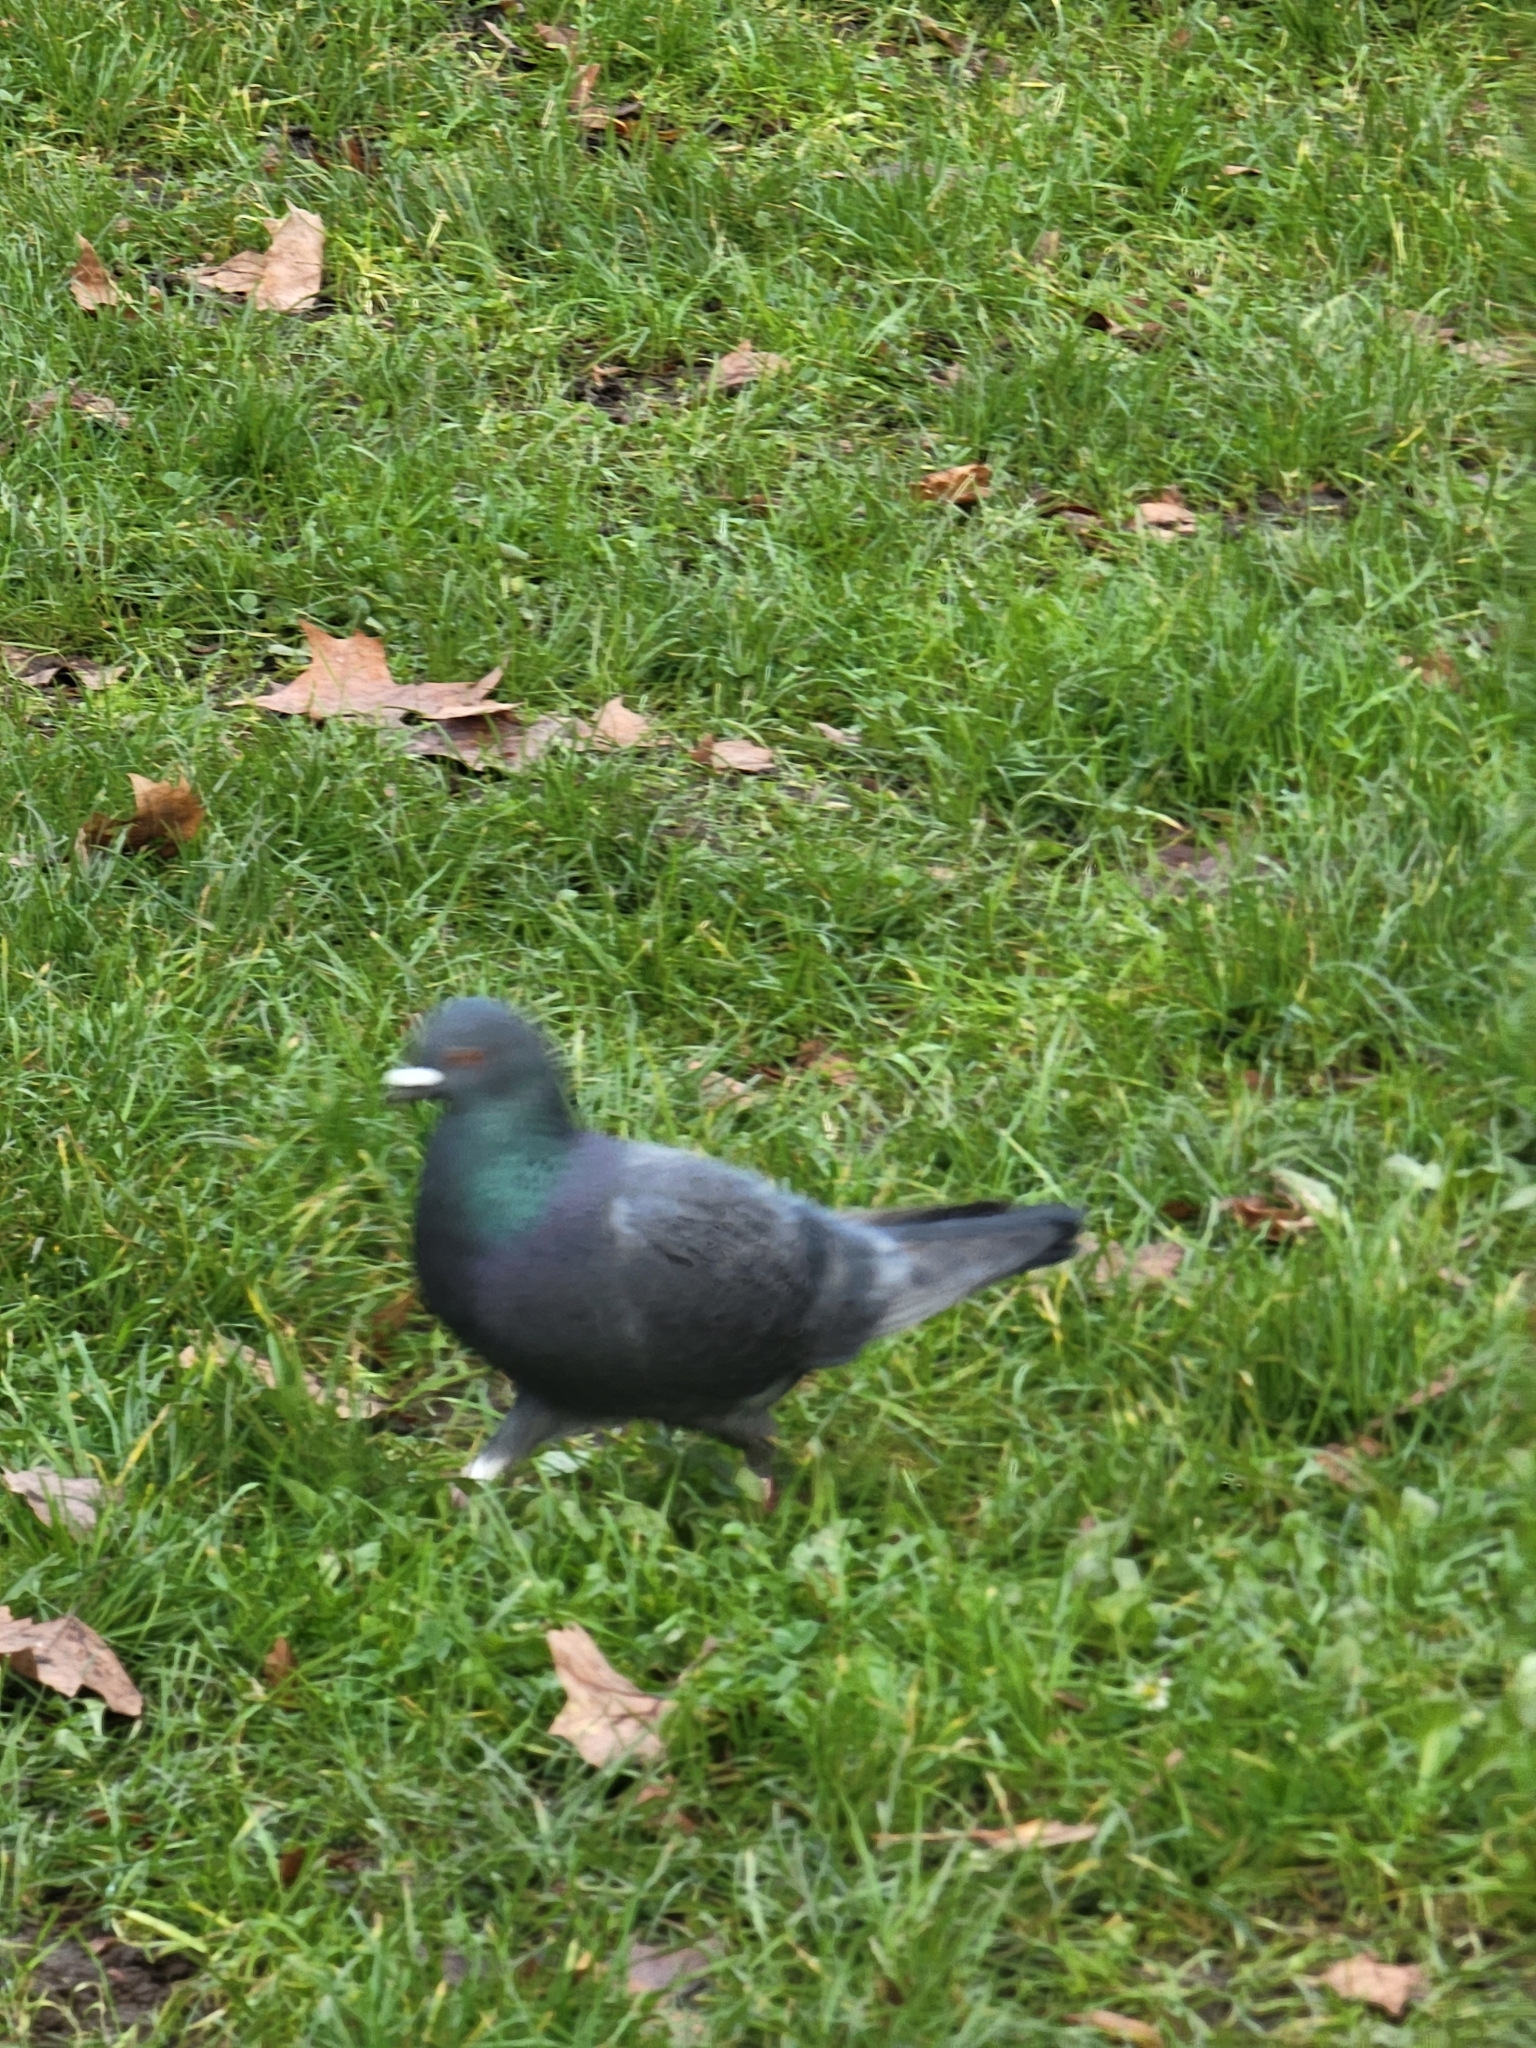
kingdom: Animalia
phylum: Chordata
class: Aves
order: Columbiformes
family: Columbidae
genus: Columba
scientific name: Columba livia
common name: Rock pigeon
